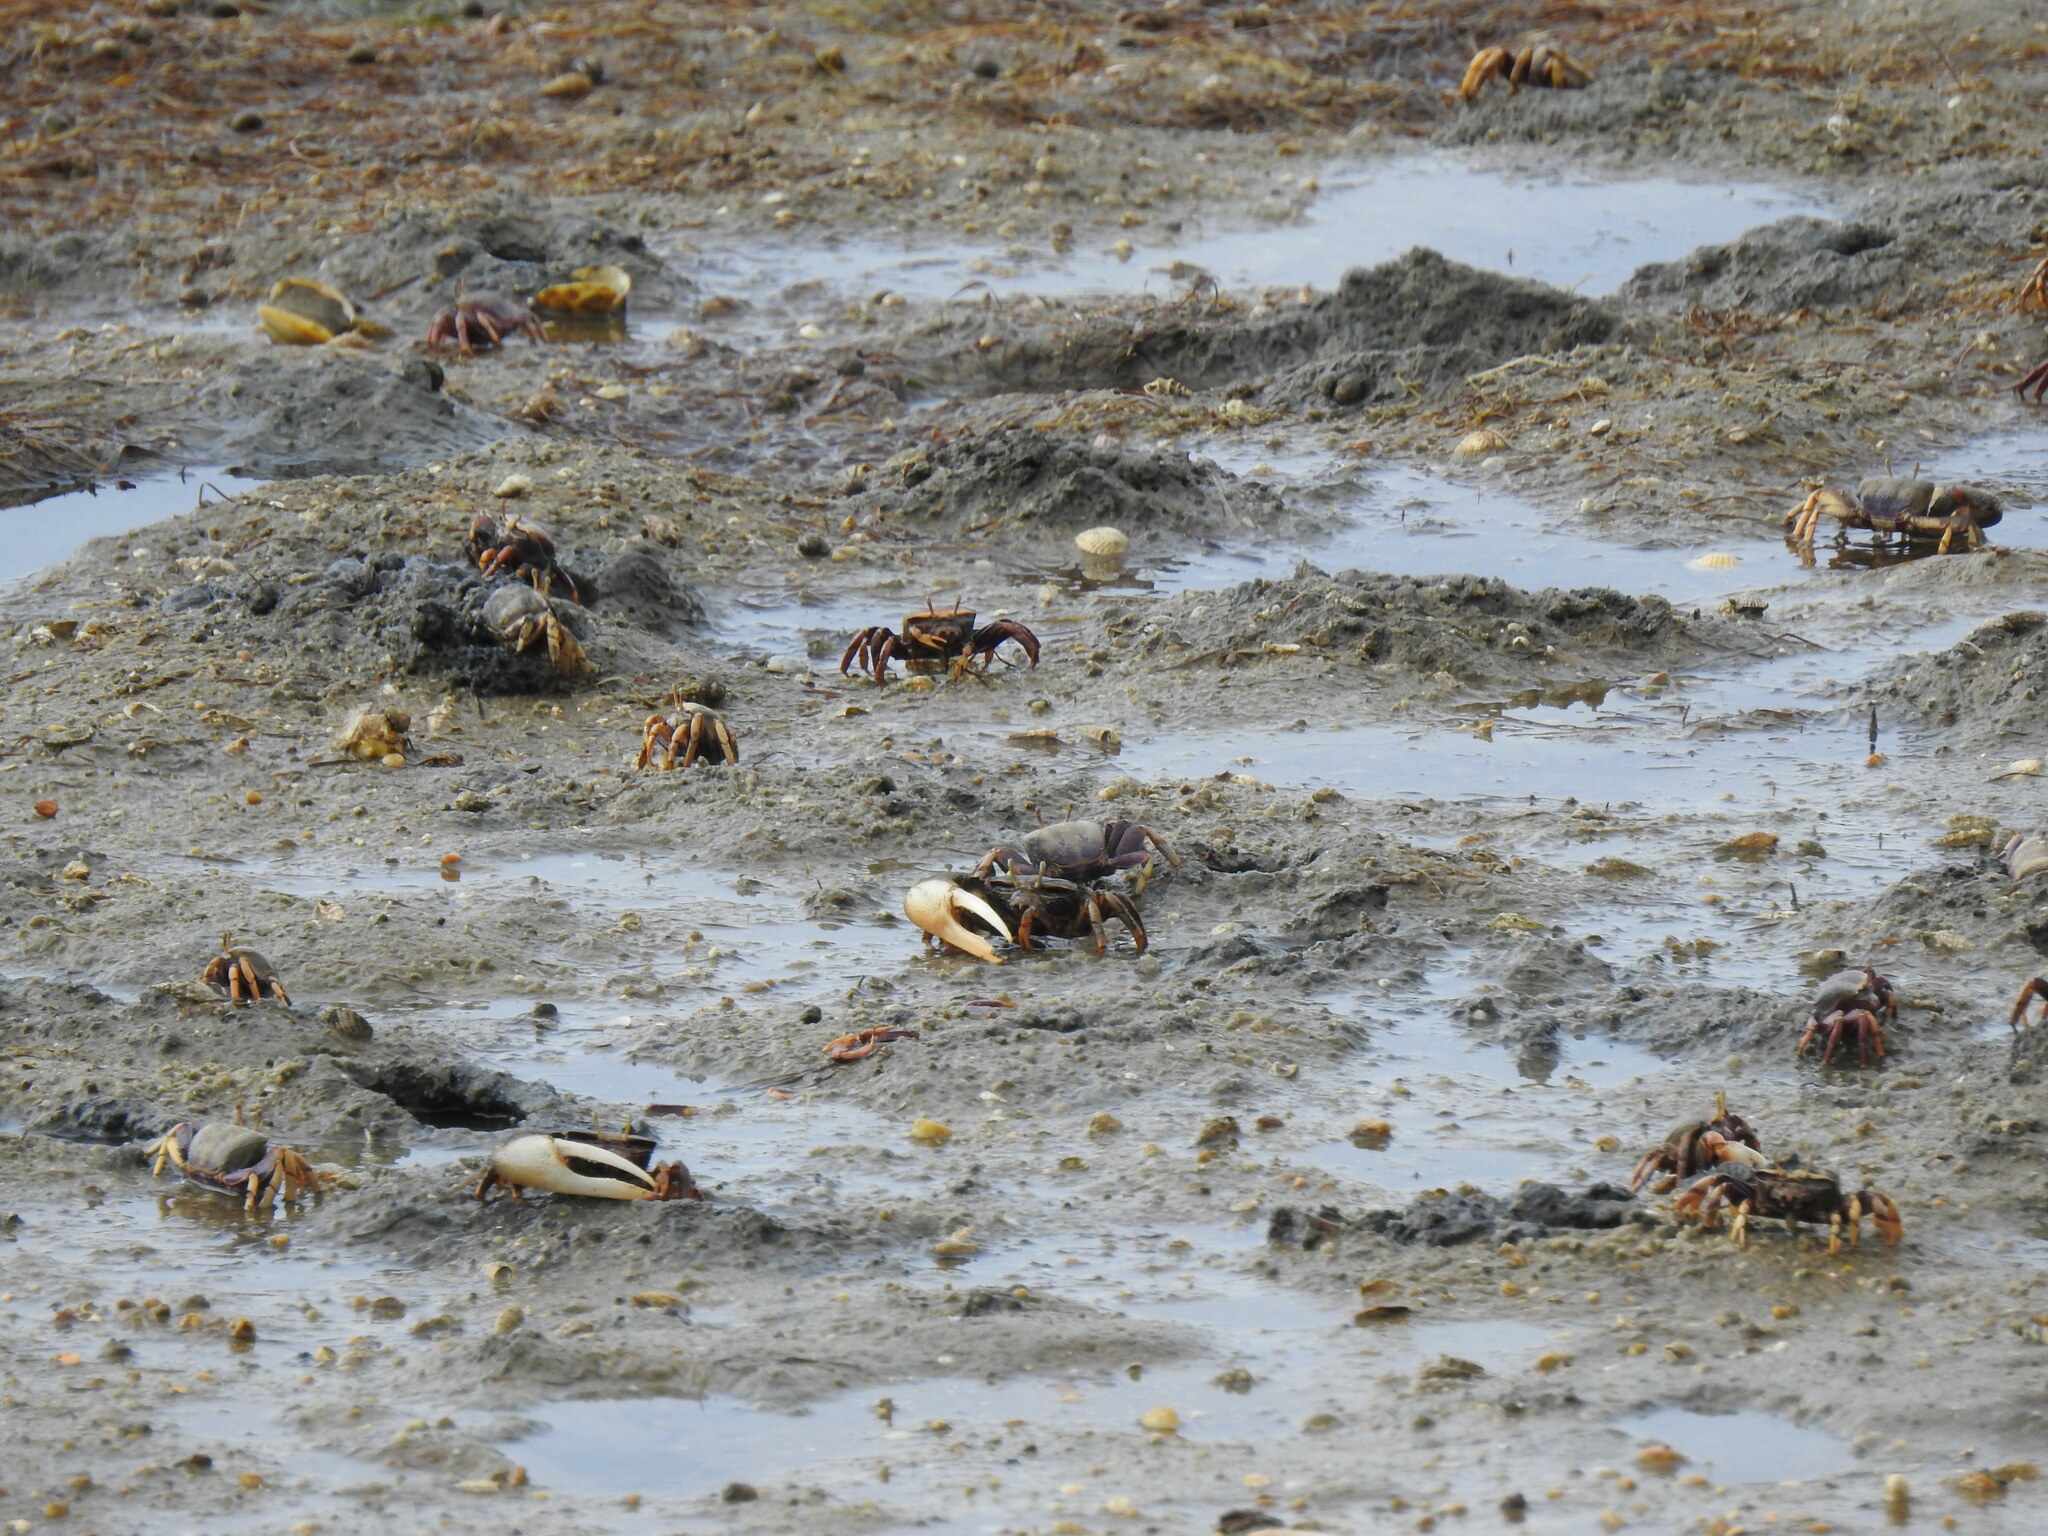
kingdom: Animalia
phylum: Arthropoda
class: Malacostraca
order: Decapoda
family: Ocypodidae
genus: Afruca
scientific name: Afruca tangeri
